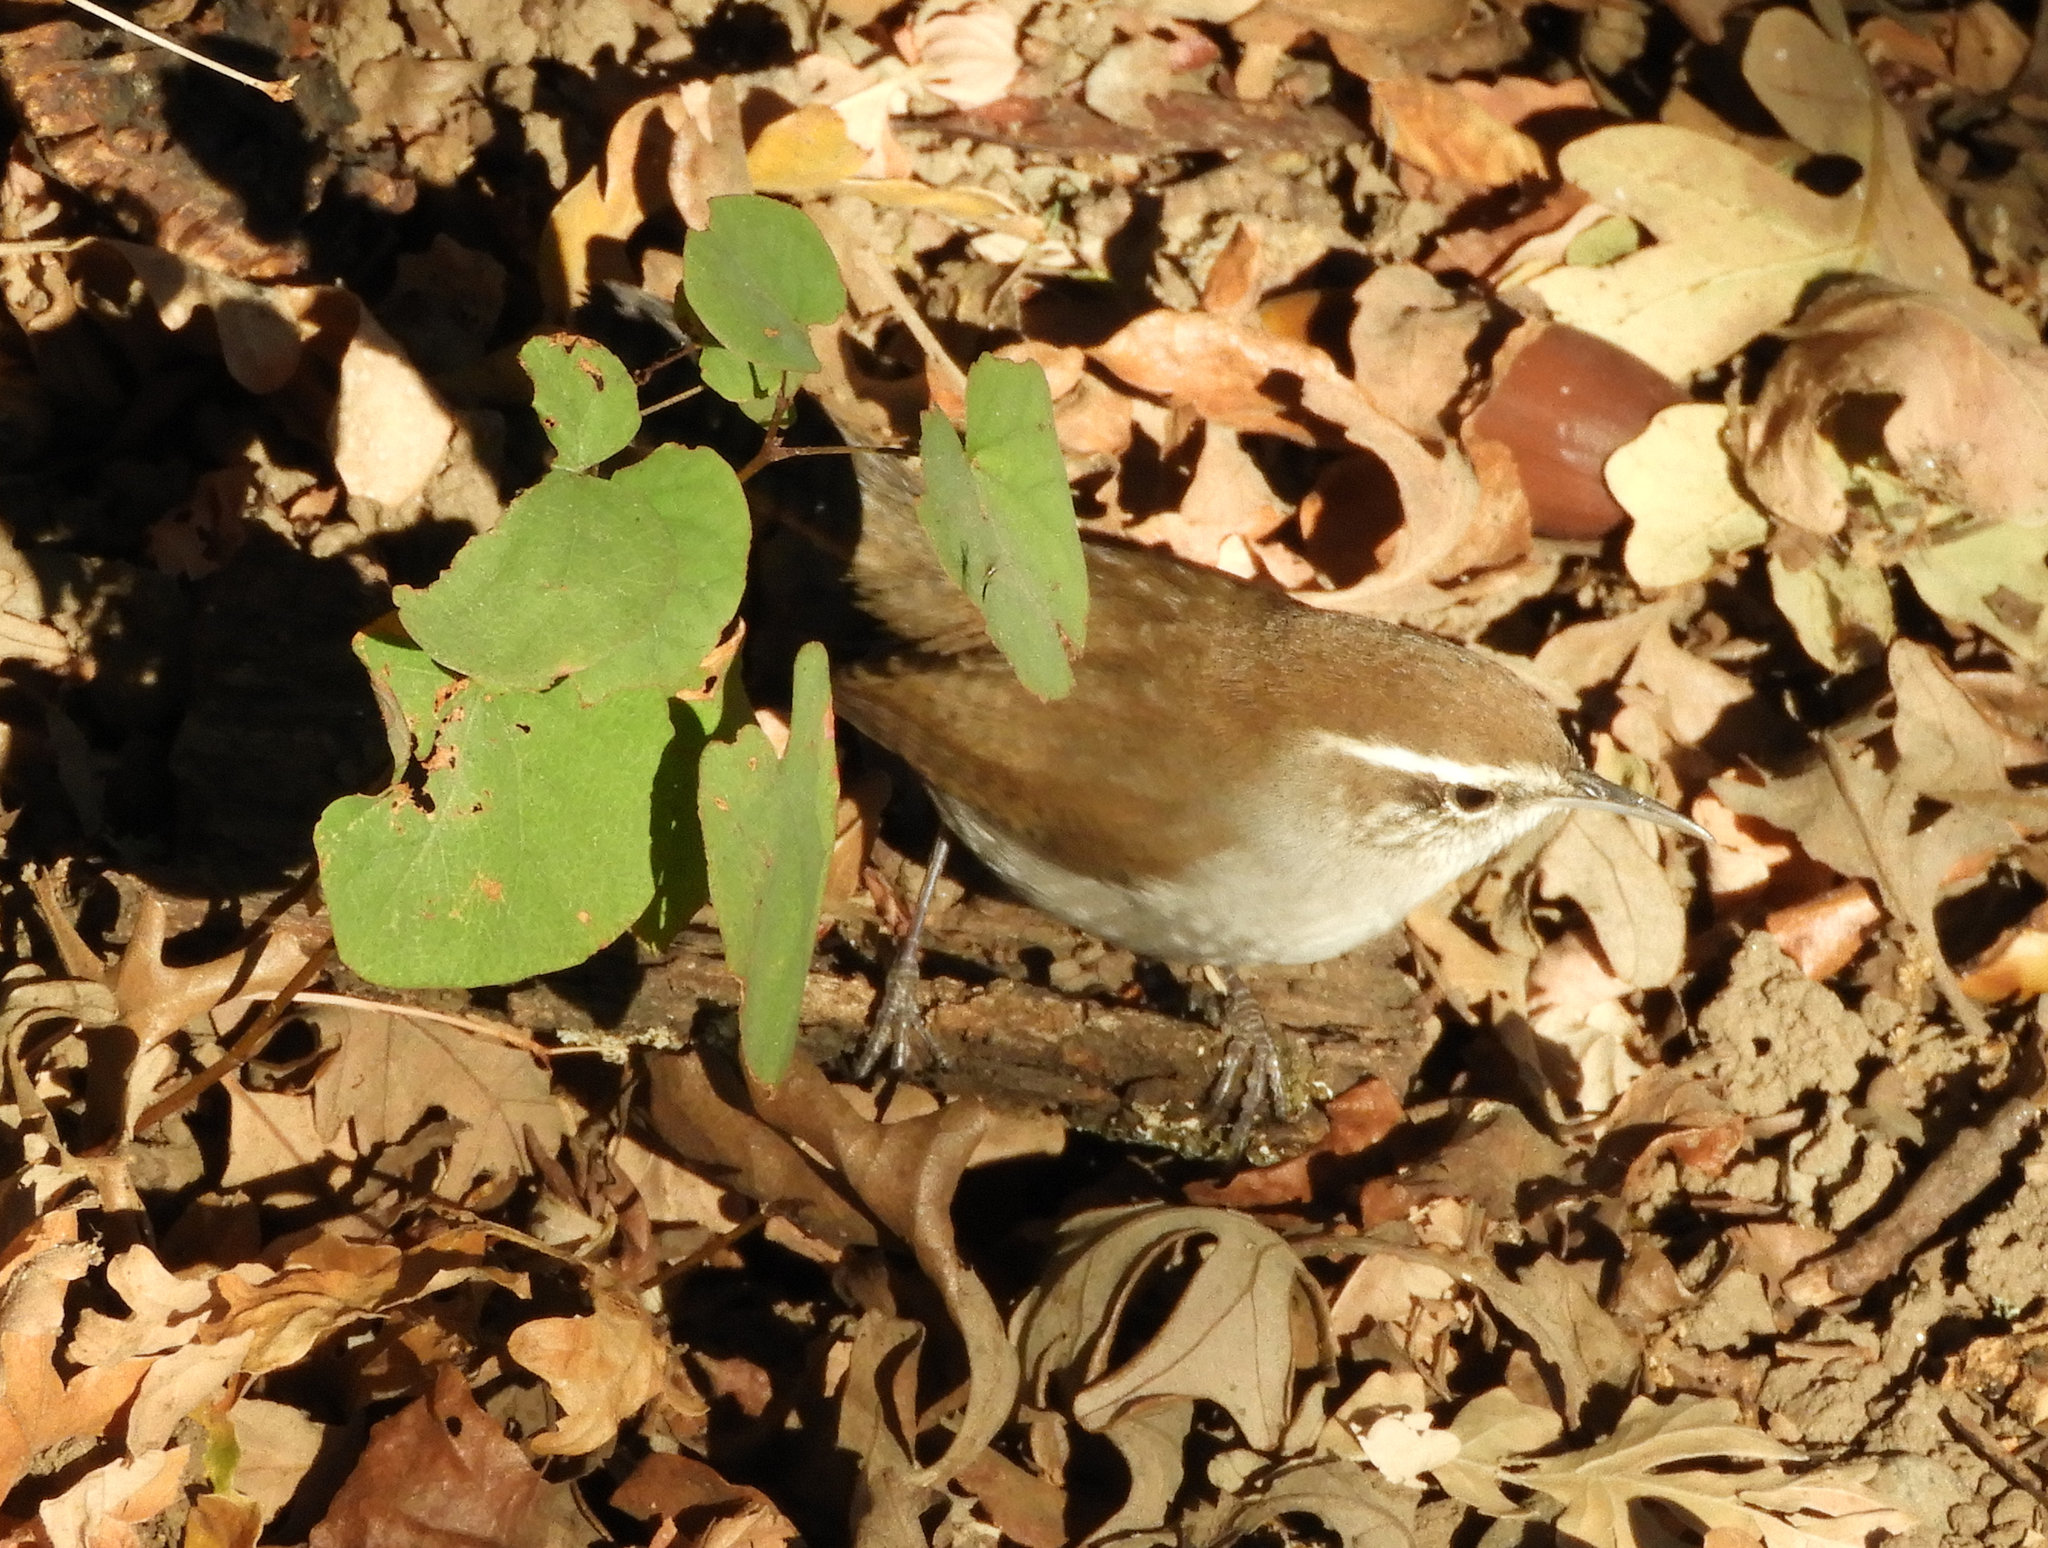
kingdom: Animalia
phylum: Chordata
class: Aves
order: Passeriformes
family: Troglodytidae
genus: Thryomanes
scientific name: Thryomanes bewickii
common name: Bewick's wren
